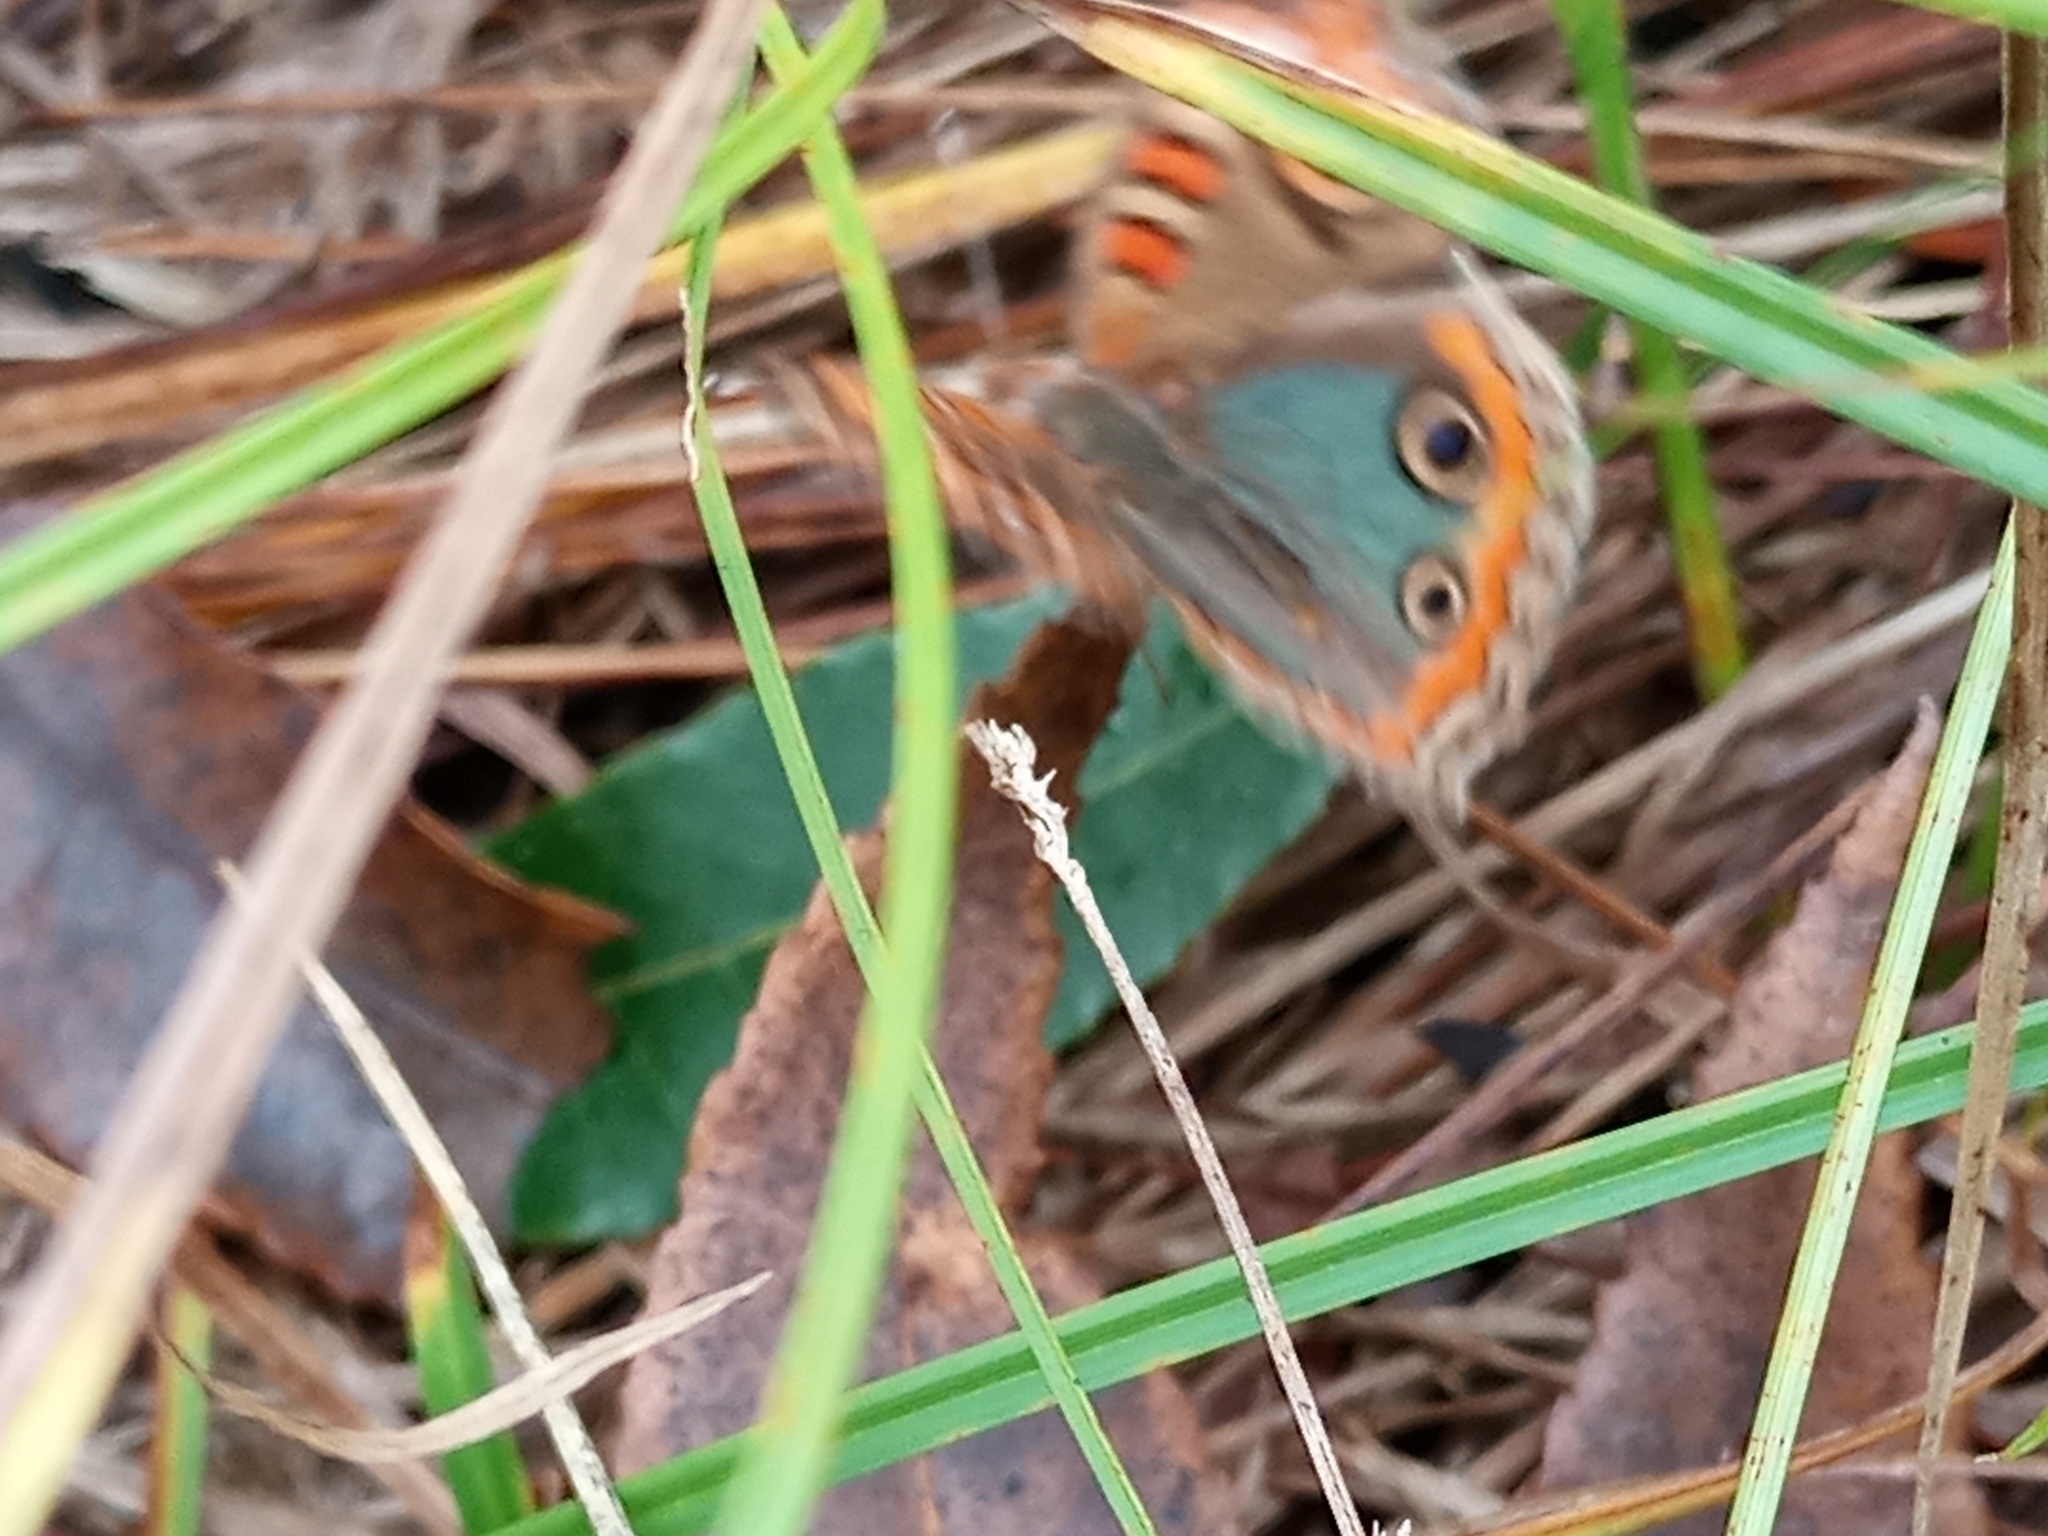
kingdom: Animalia
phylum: Arthropoda
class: Insecta
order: Lepidoptera
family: Nymphalidae
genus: Junonia
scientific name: Junonia lavinia
